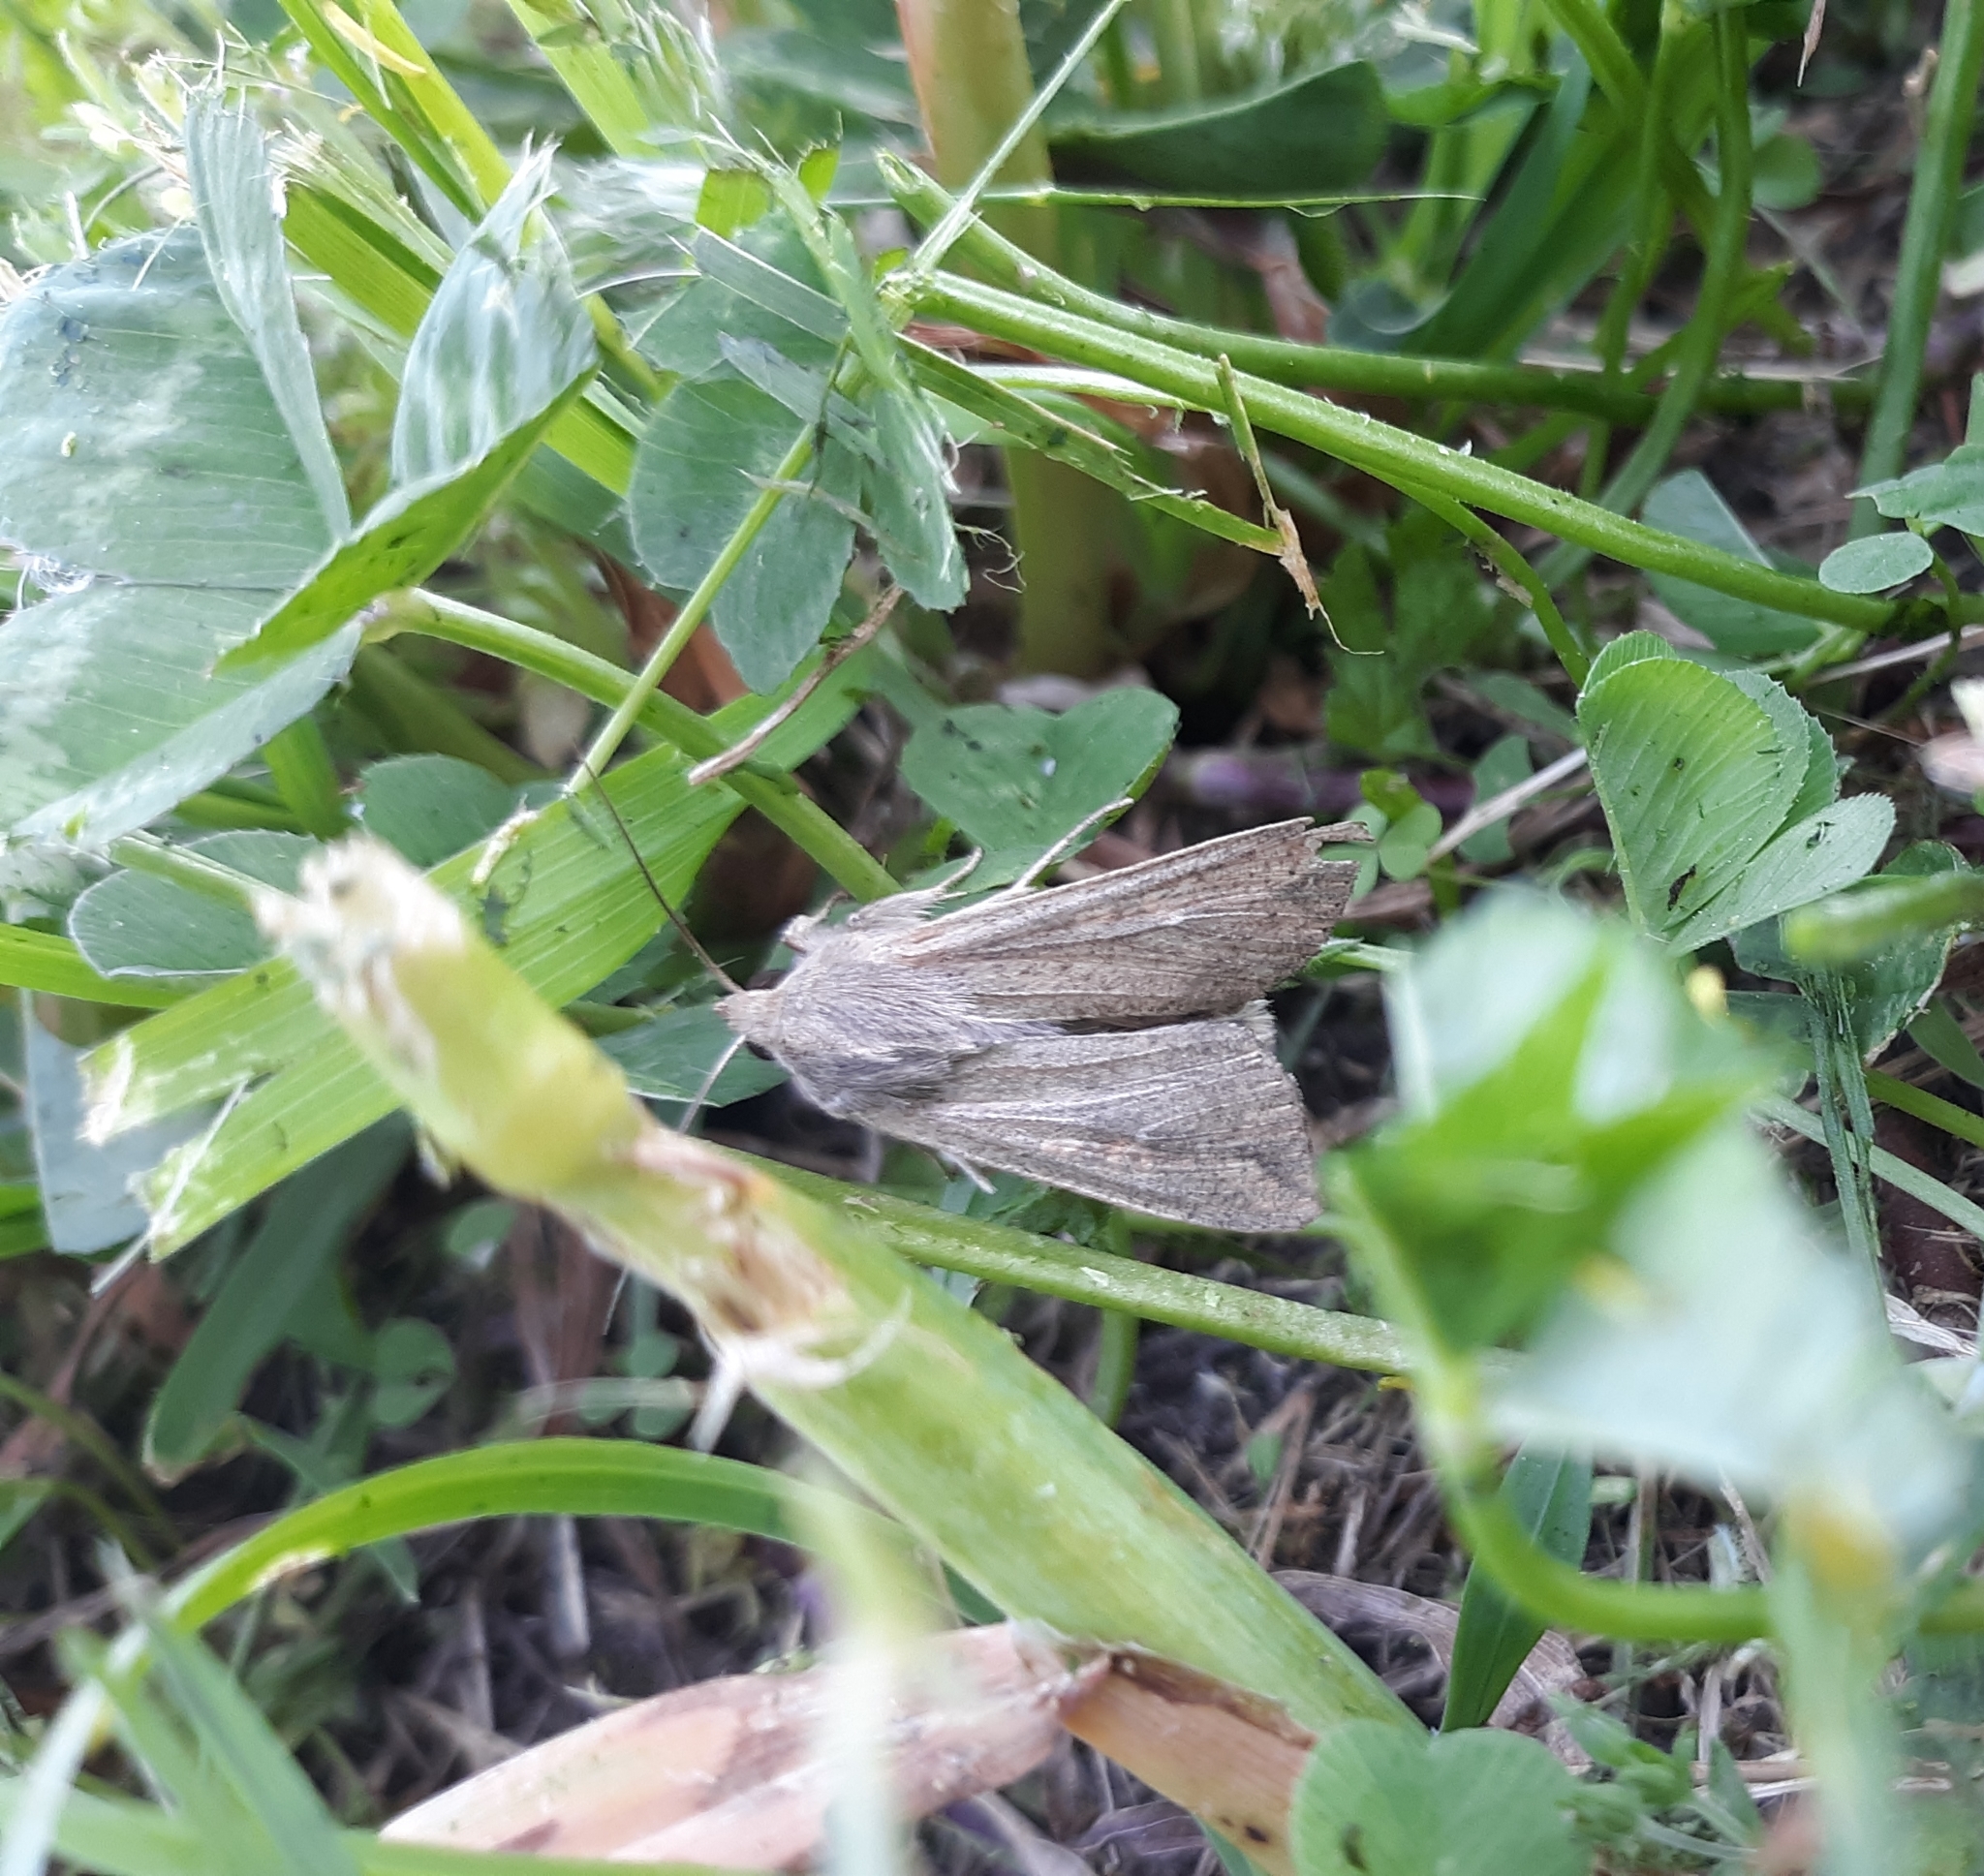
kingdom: Animalia
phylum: Arthropoda
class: Insecta
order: Lepidoptera
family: Noctuidae
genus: Mythimna
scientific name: Mythimna unipuncta
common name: White-speck
